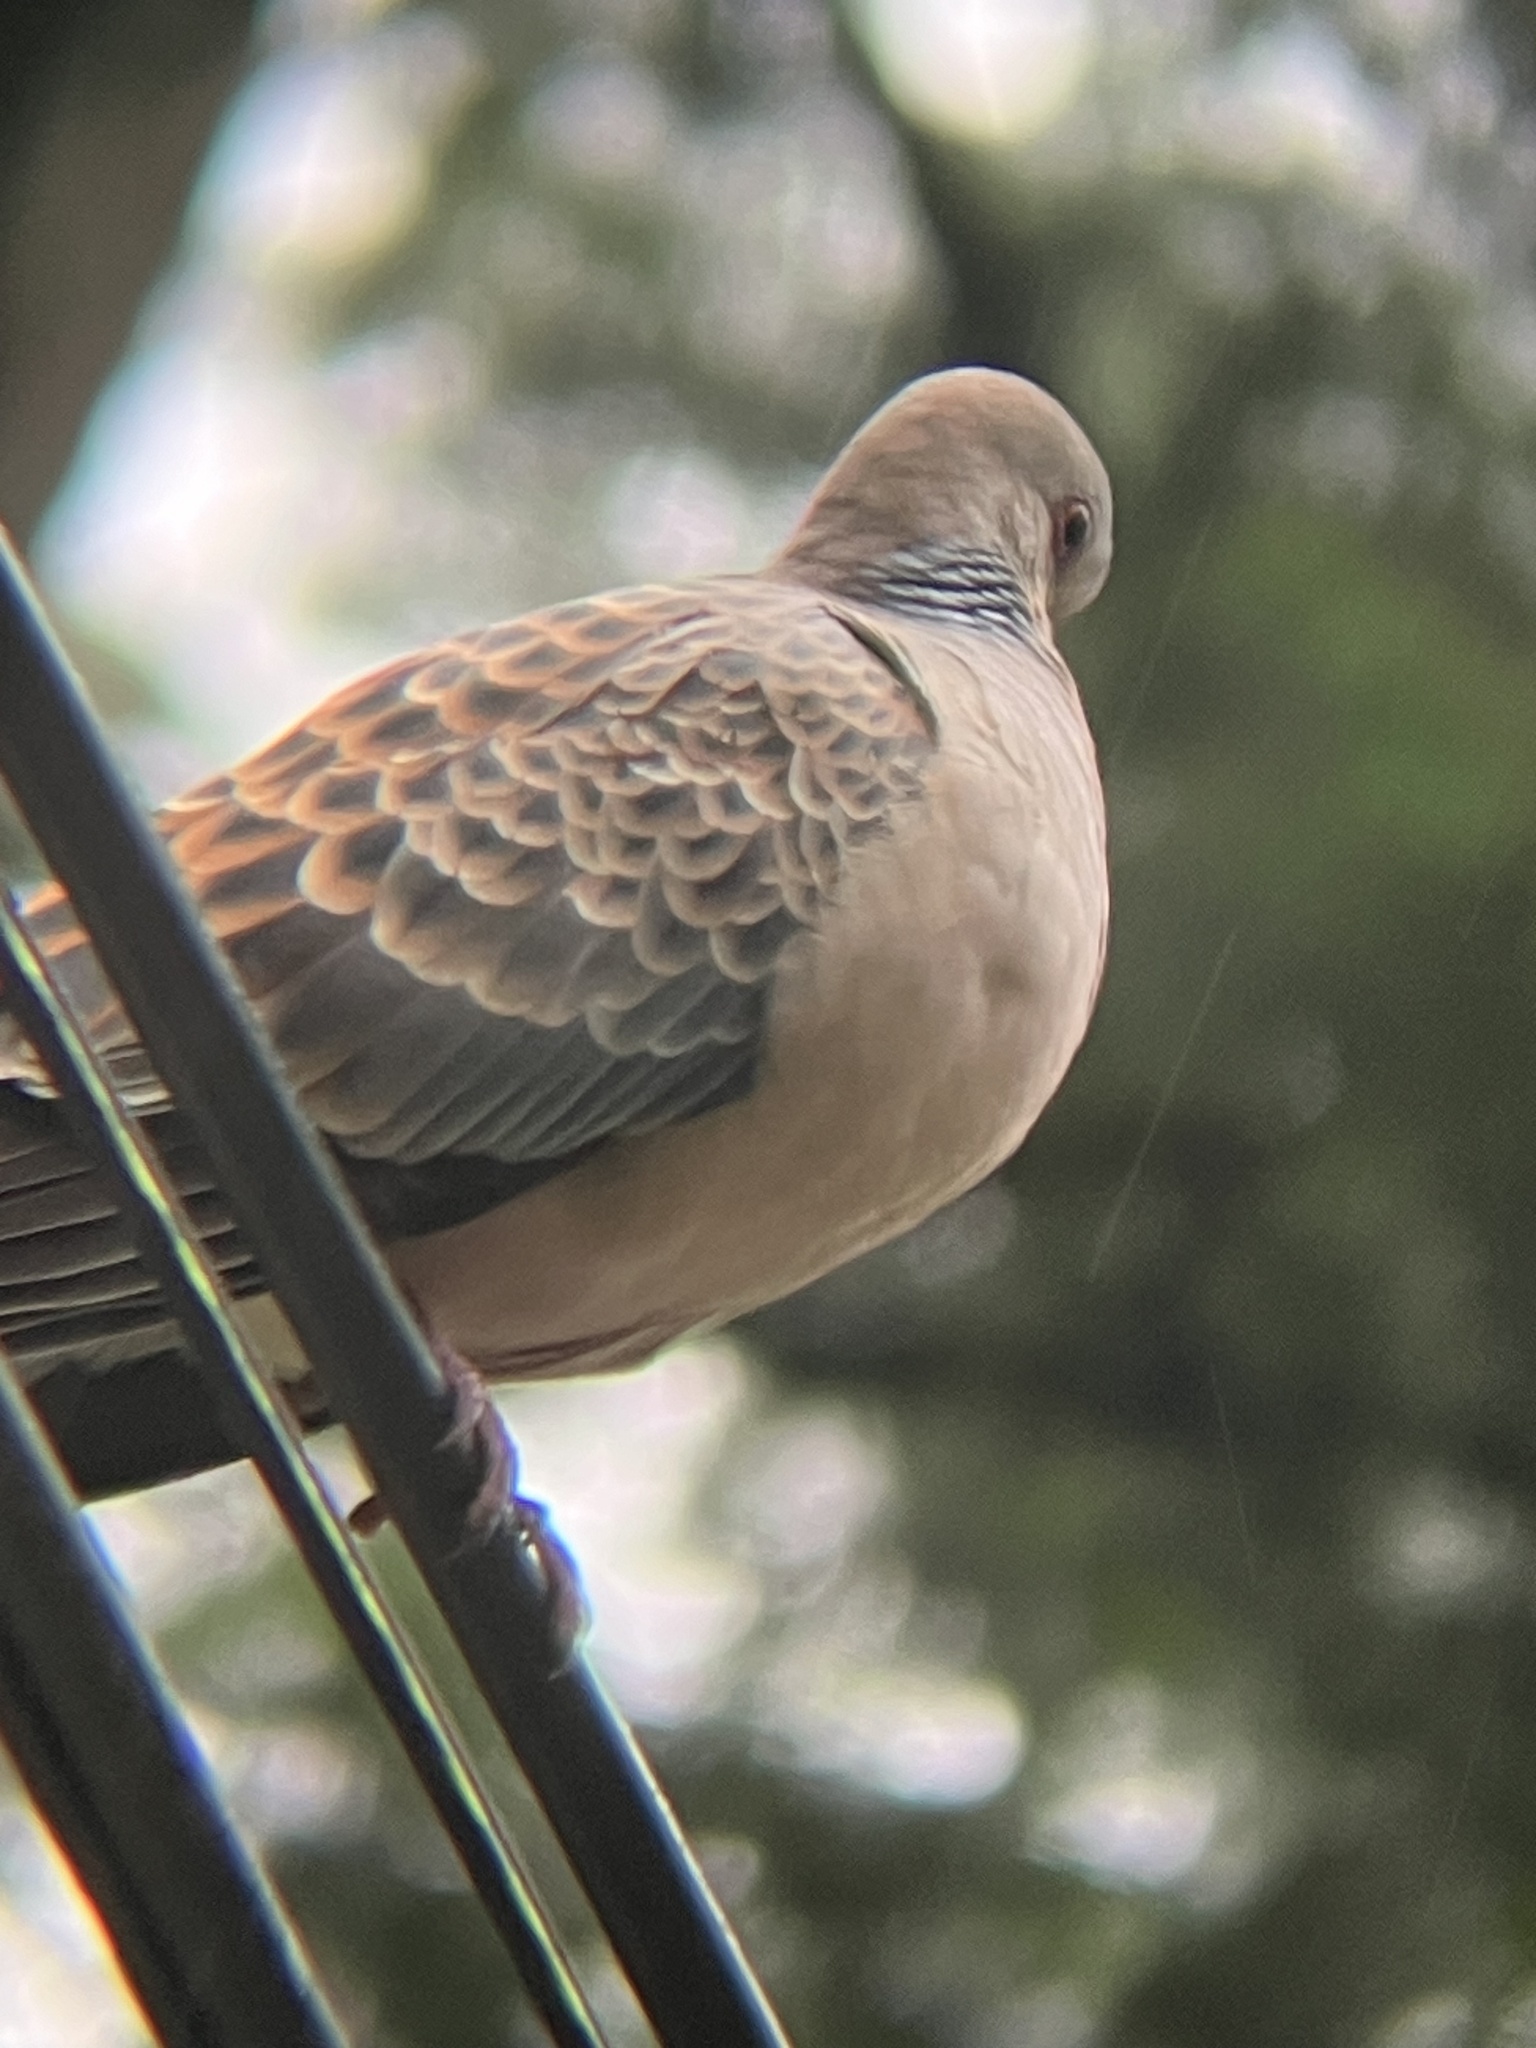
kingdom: Animalia
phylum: Chordata
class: Aves
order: Columbiformes
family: Columbidae
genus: Streptopelia
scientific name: Streptopelia orientalis
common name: Oriental turtle dove
